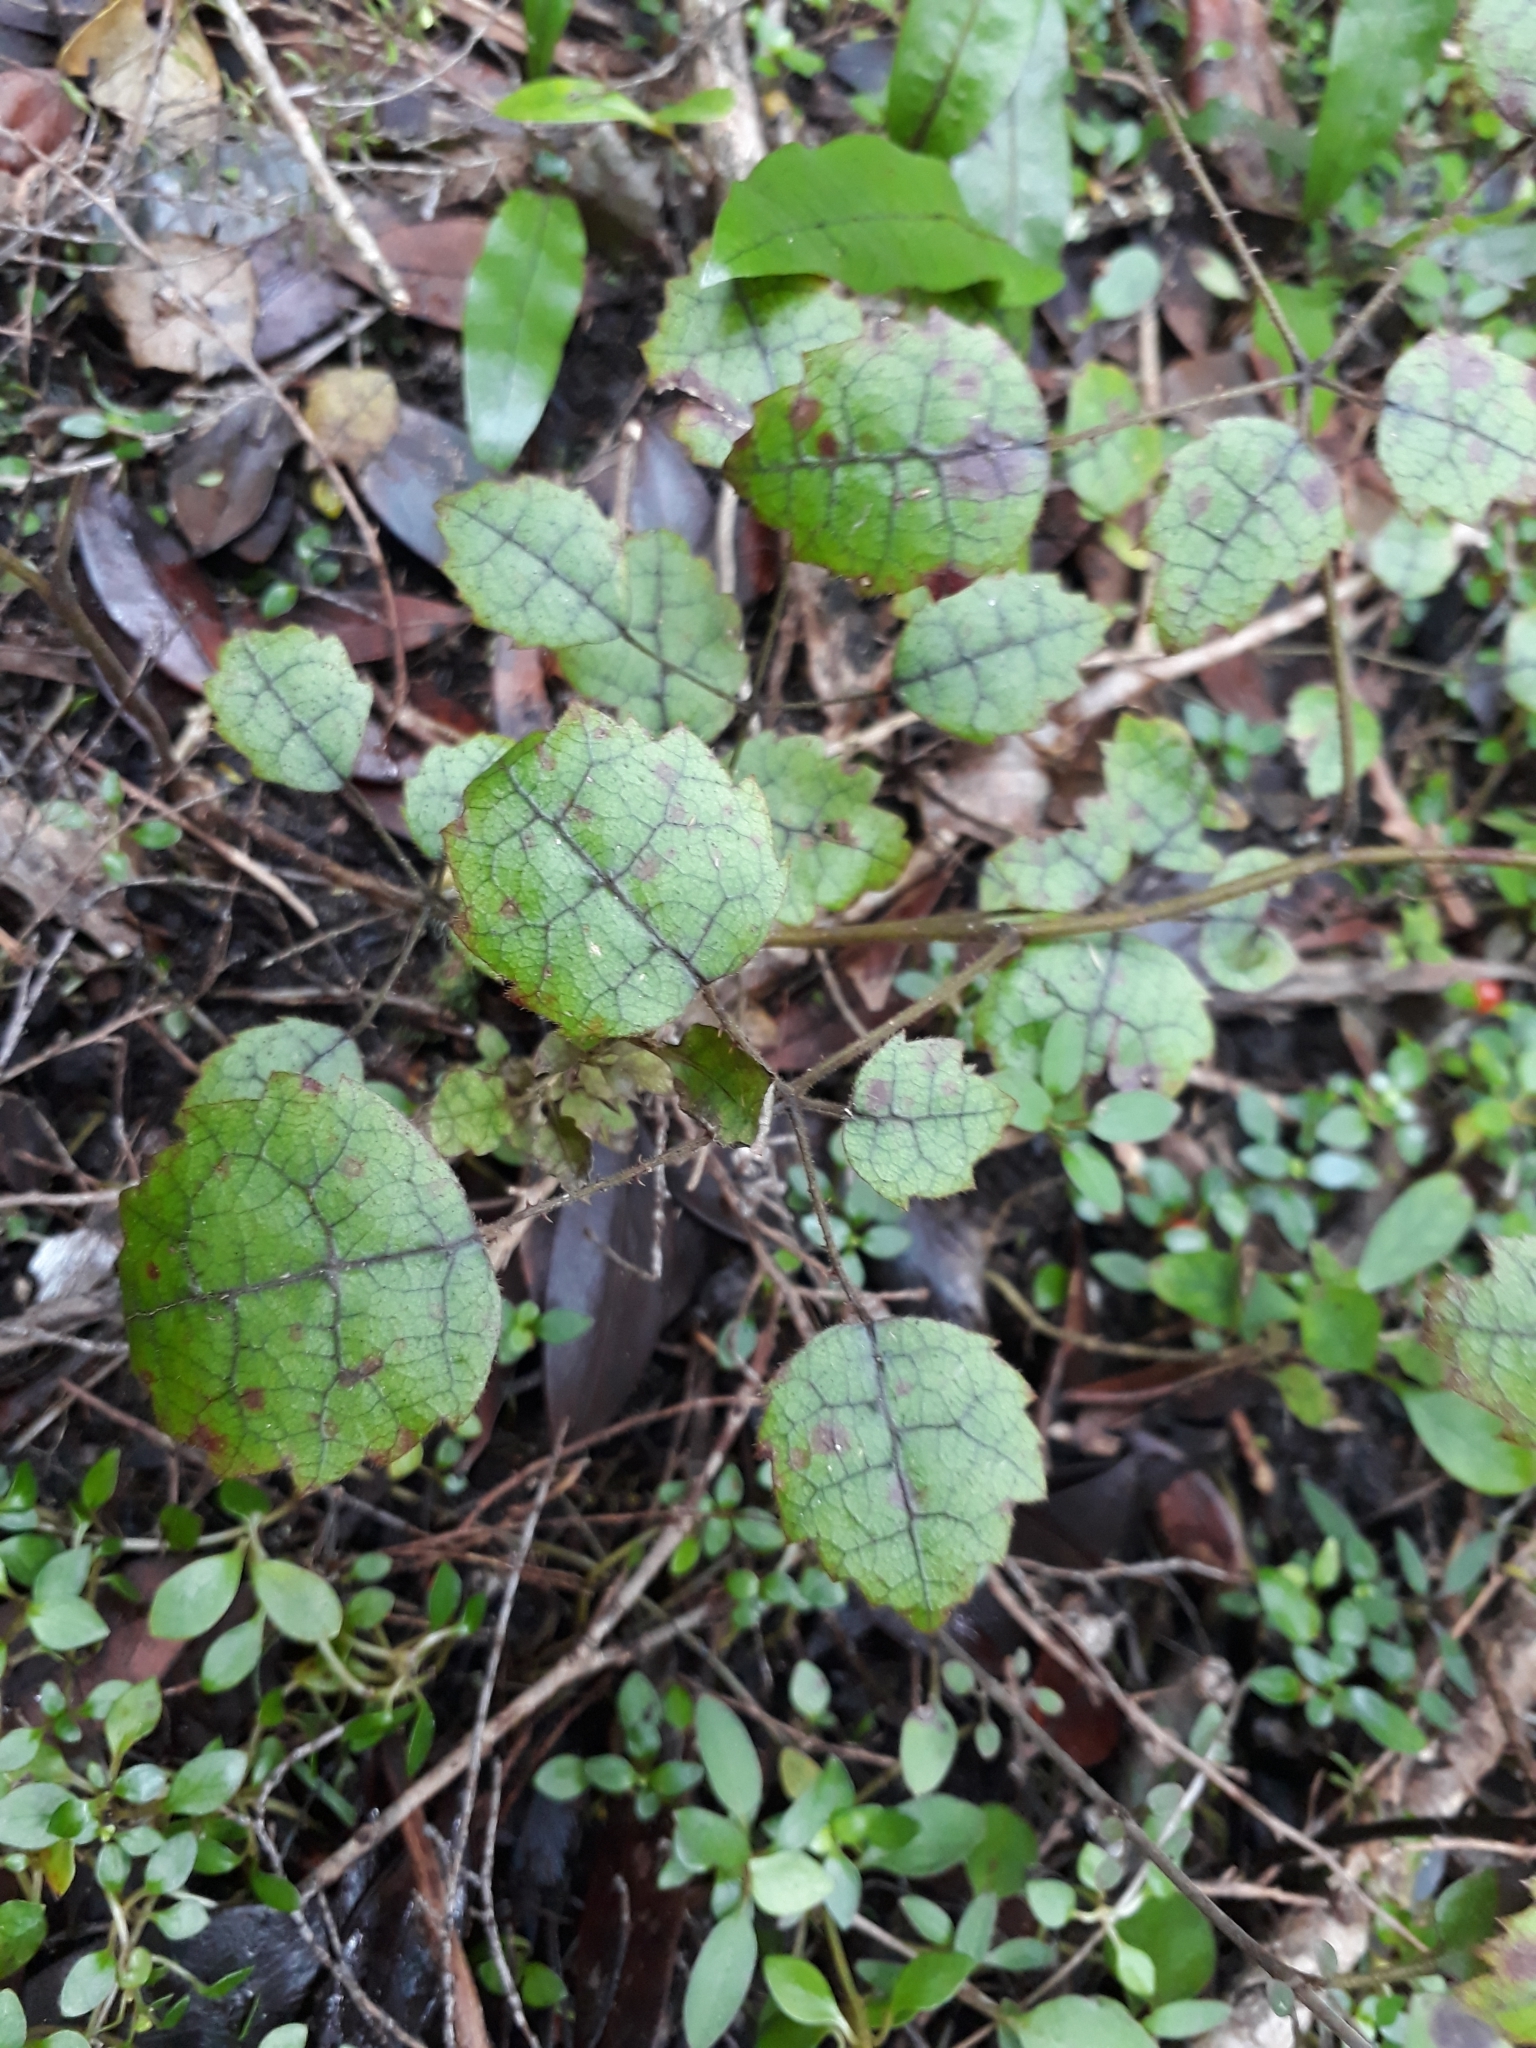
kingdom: Plantae
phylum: Tracheophyta
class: Magnoliopsida
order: Rosales
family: Rosaceae
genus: Rubus
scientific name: Rubus australis
